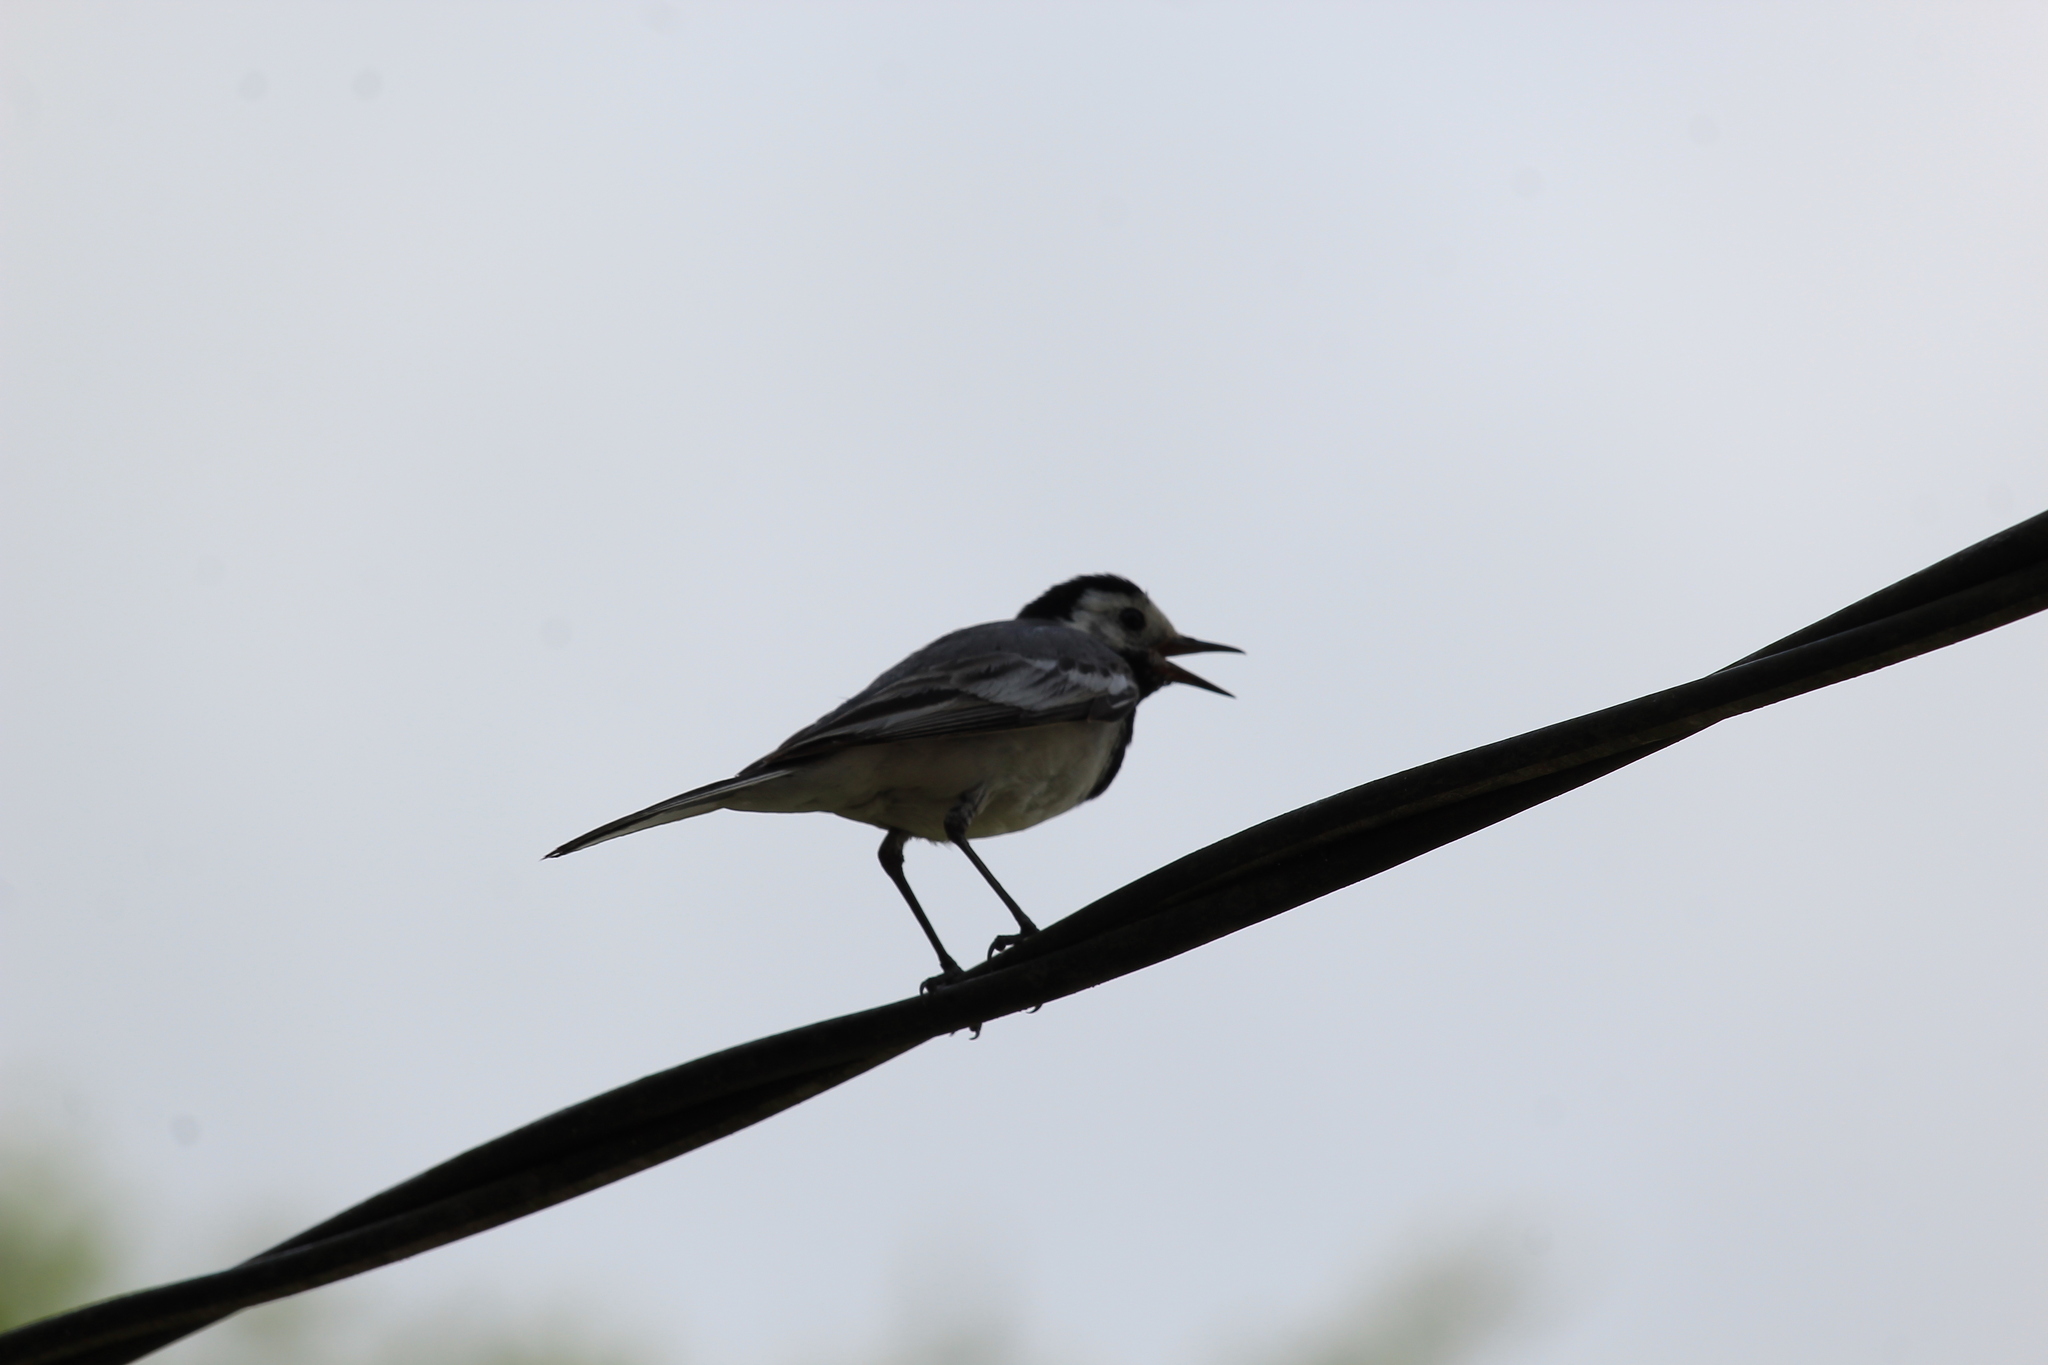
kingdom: Animalia
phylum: Chordata
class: Aves
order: Passeriformes
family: Motacillidae
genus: Motacilla
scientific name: Motacilla alba
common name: White wagtail
